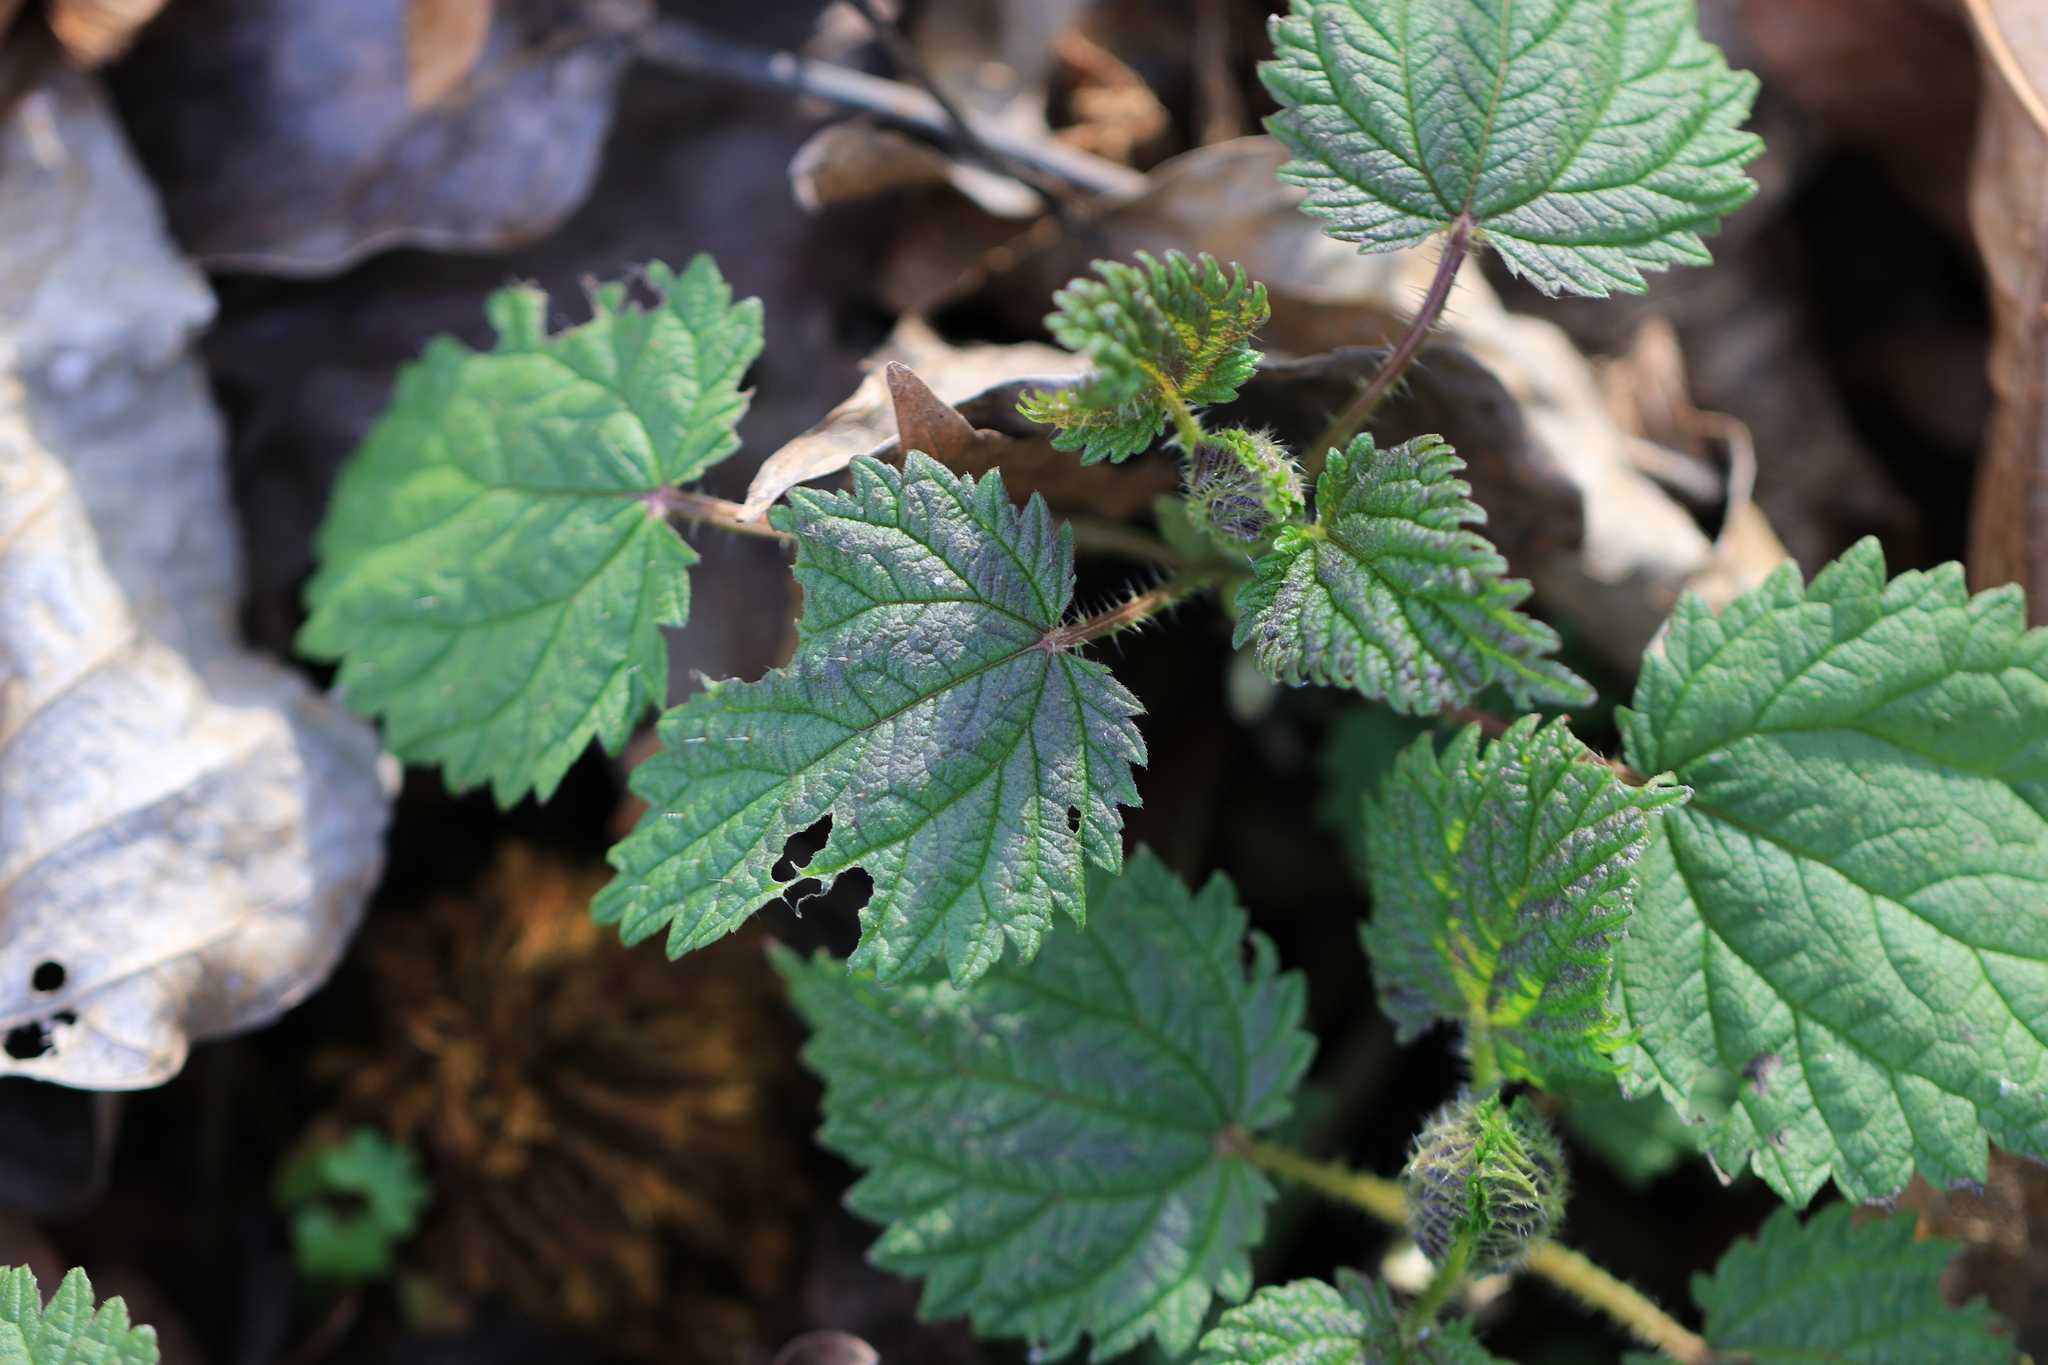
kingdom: Plantae
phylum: Tracheophyta
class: Magnoliopsida
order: Rosales
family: Urticaceae
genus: Urtica
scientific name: Urtica gracilis
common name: Slender stinging nettle
